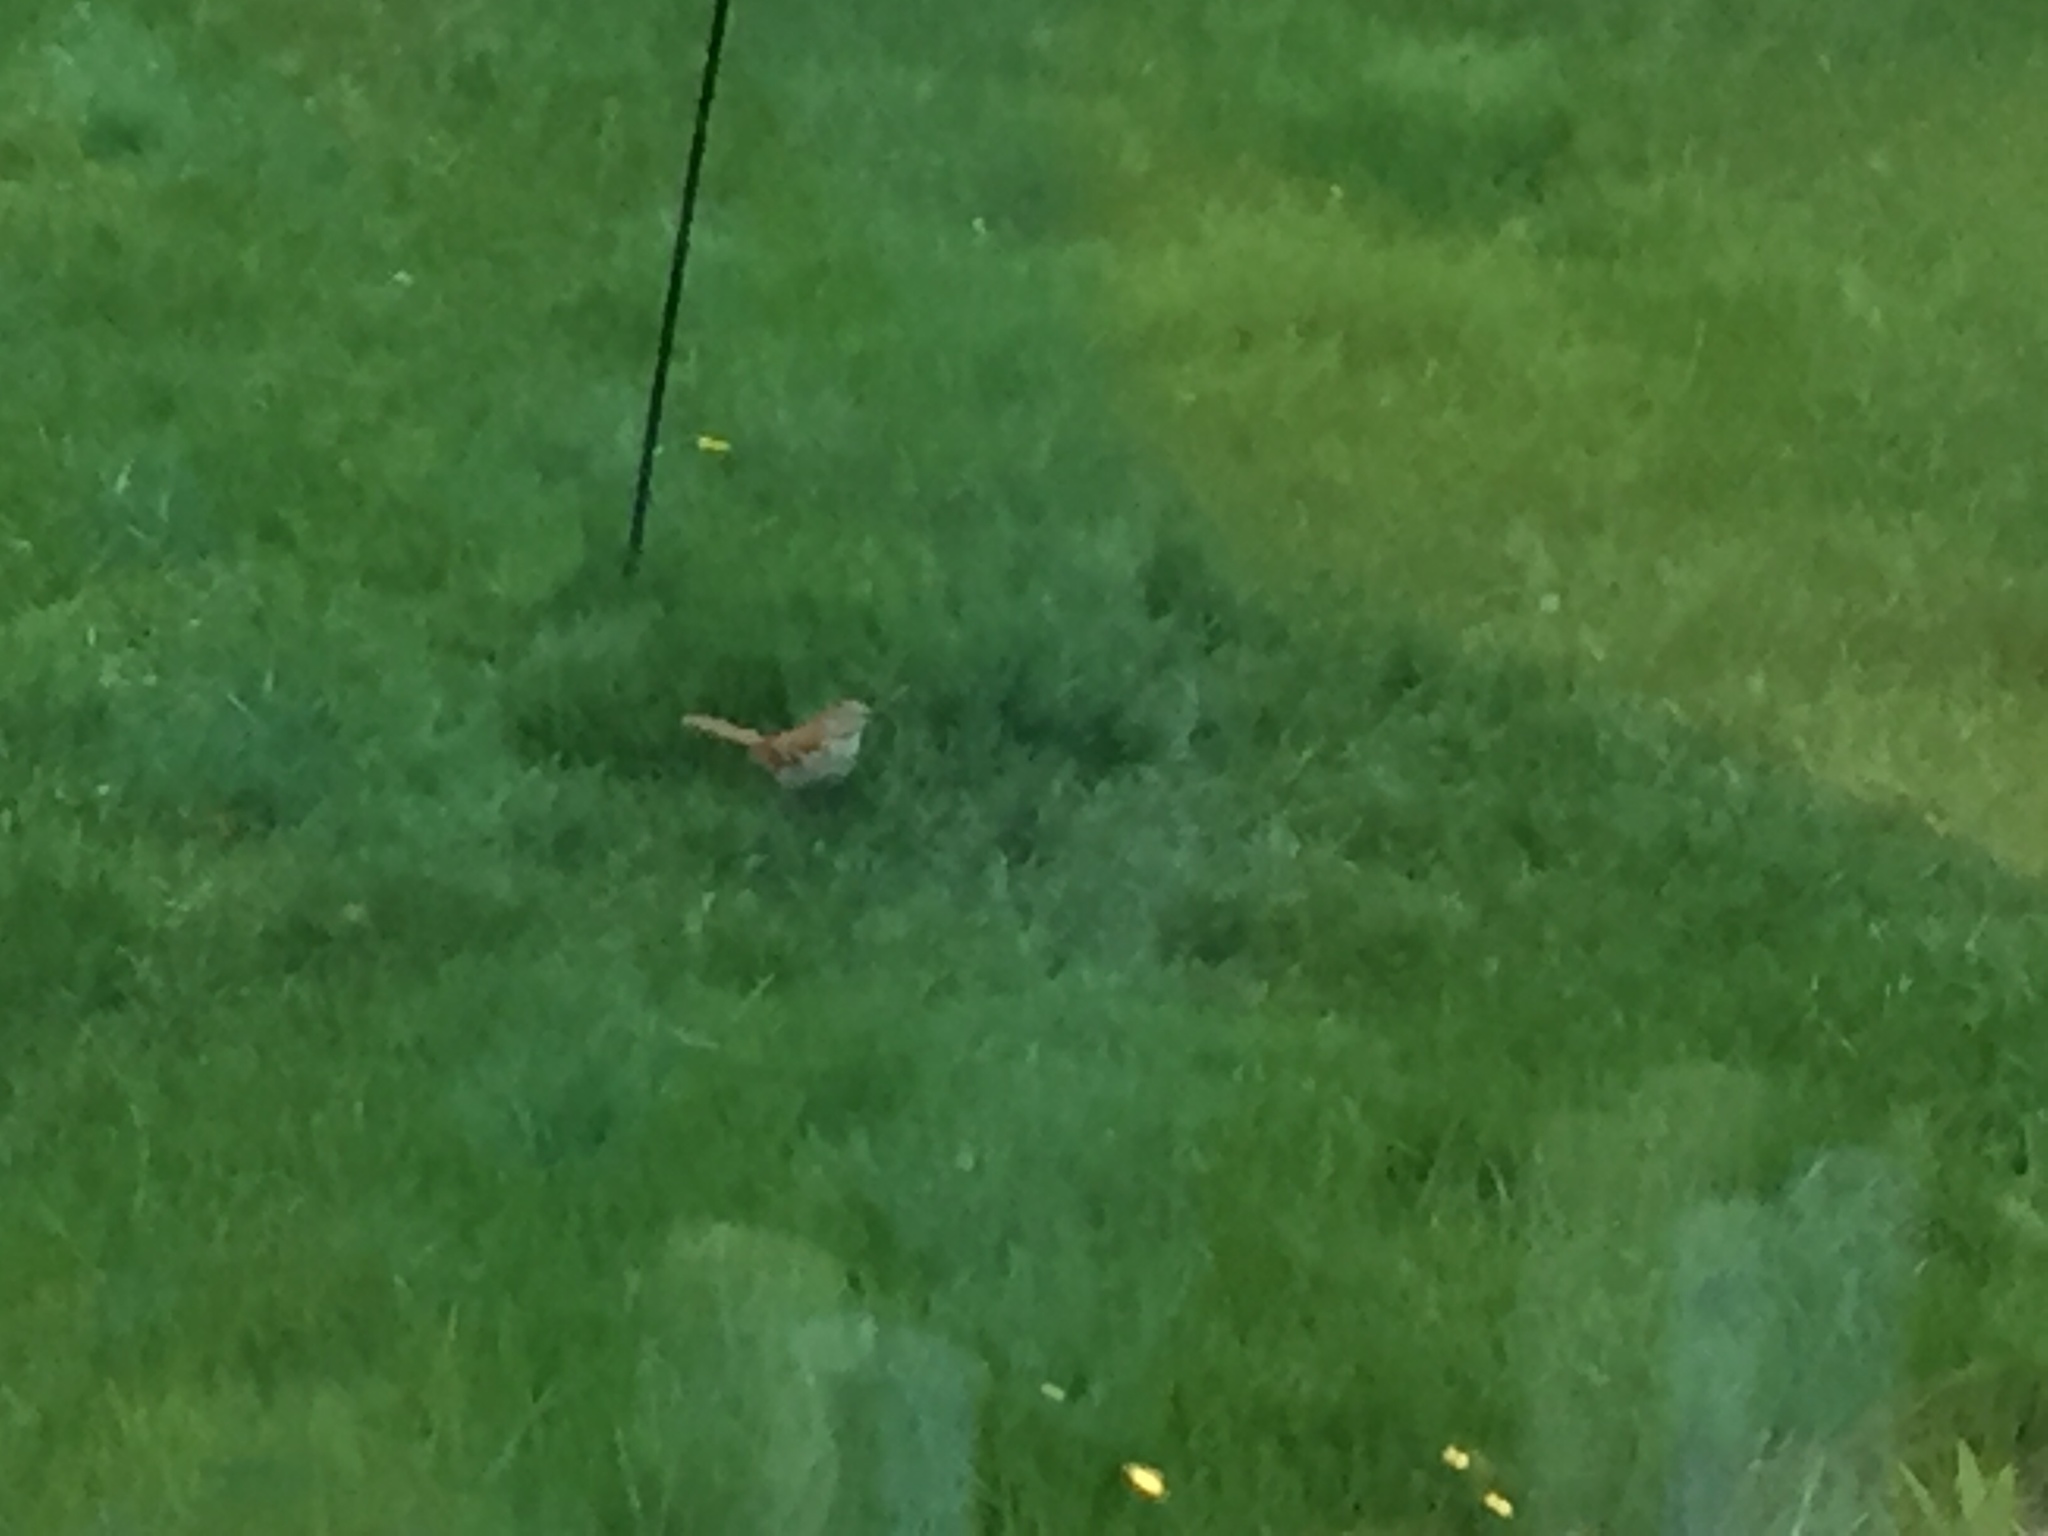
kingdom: Animalia
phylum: Chordata
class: Aves
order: Passeriformes
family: Mimidae
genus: Toxostoma
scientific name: Toxostoma rufum
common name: Brown thrasher
